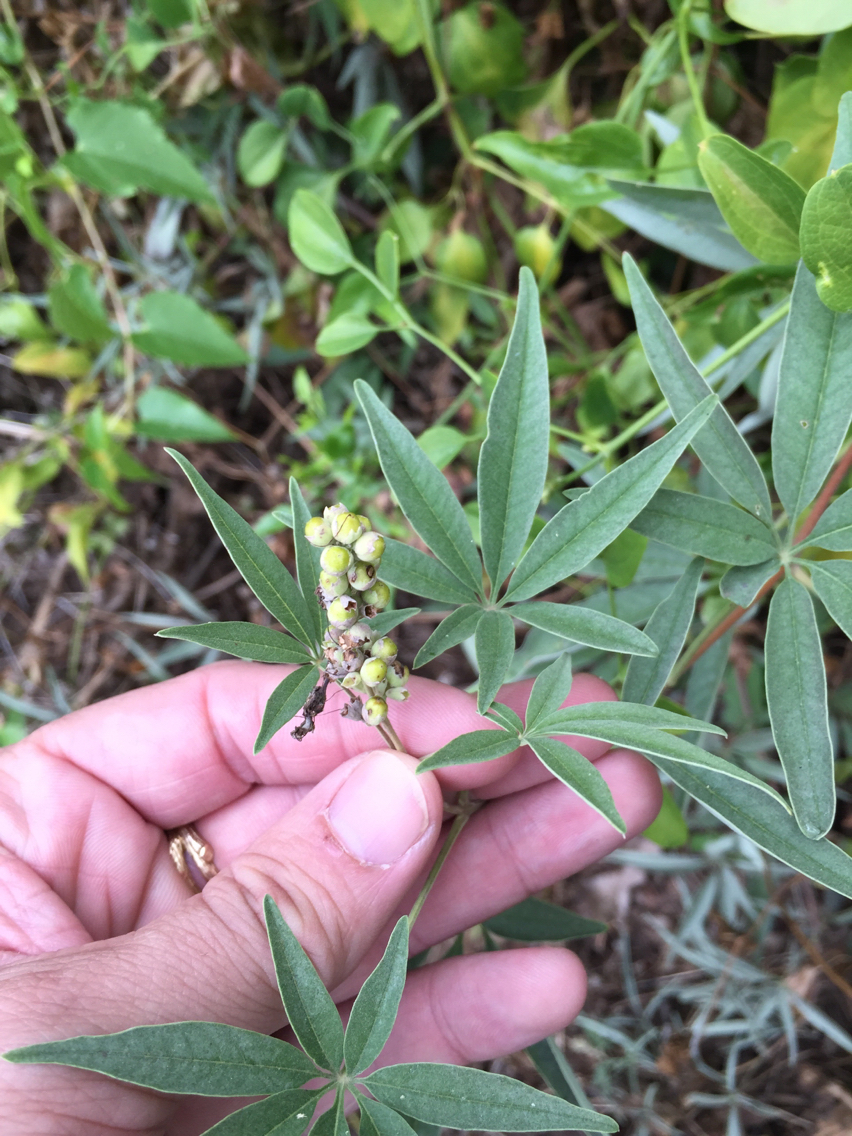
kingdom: Plantae
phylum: Tracheophyta
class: Magnoliopsida
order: Lamiales
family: Lamiaceae
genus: Vitex
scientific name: Vitex agnus-castus
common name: Chasteberry
